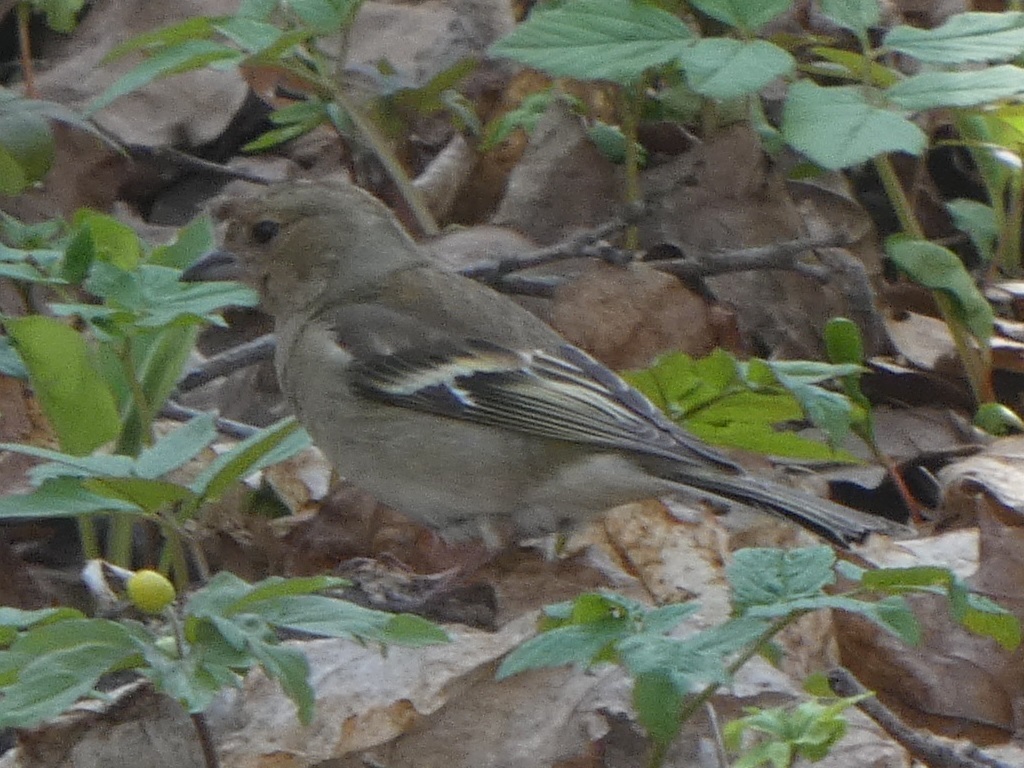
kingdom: Animalia
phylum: Chordata
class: Aves
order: Passeriformes
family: Fringillidae
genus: Fringilla
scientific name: Fringilla coelebs
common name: Common chaffinch
